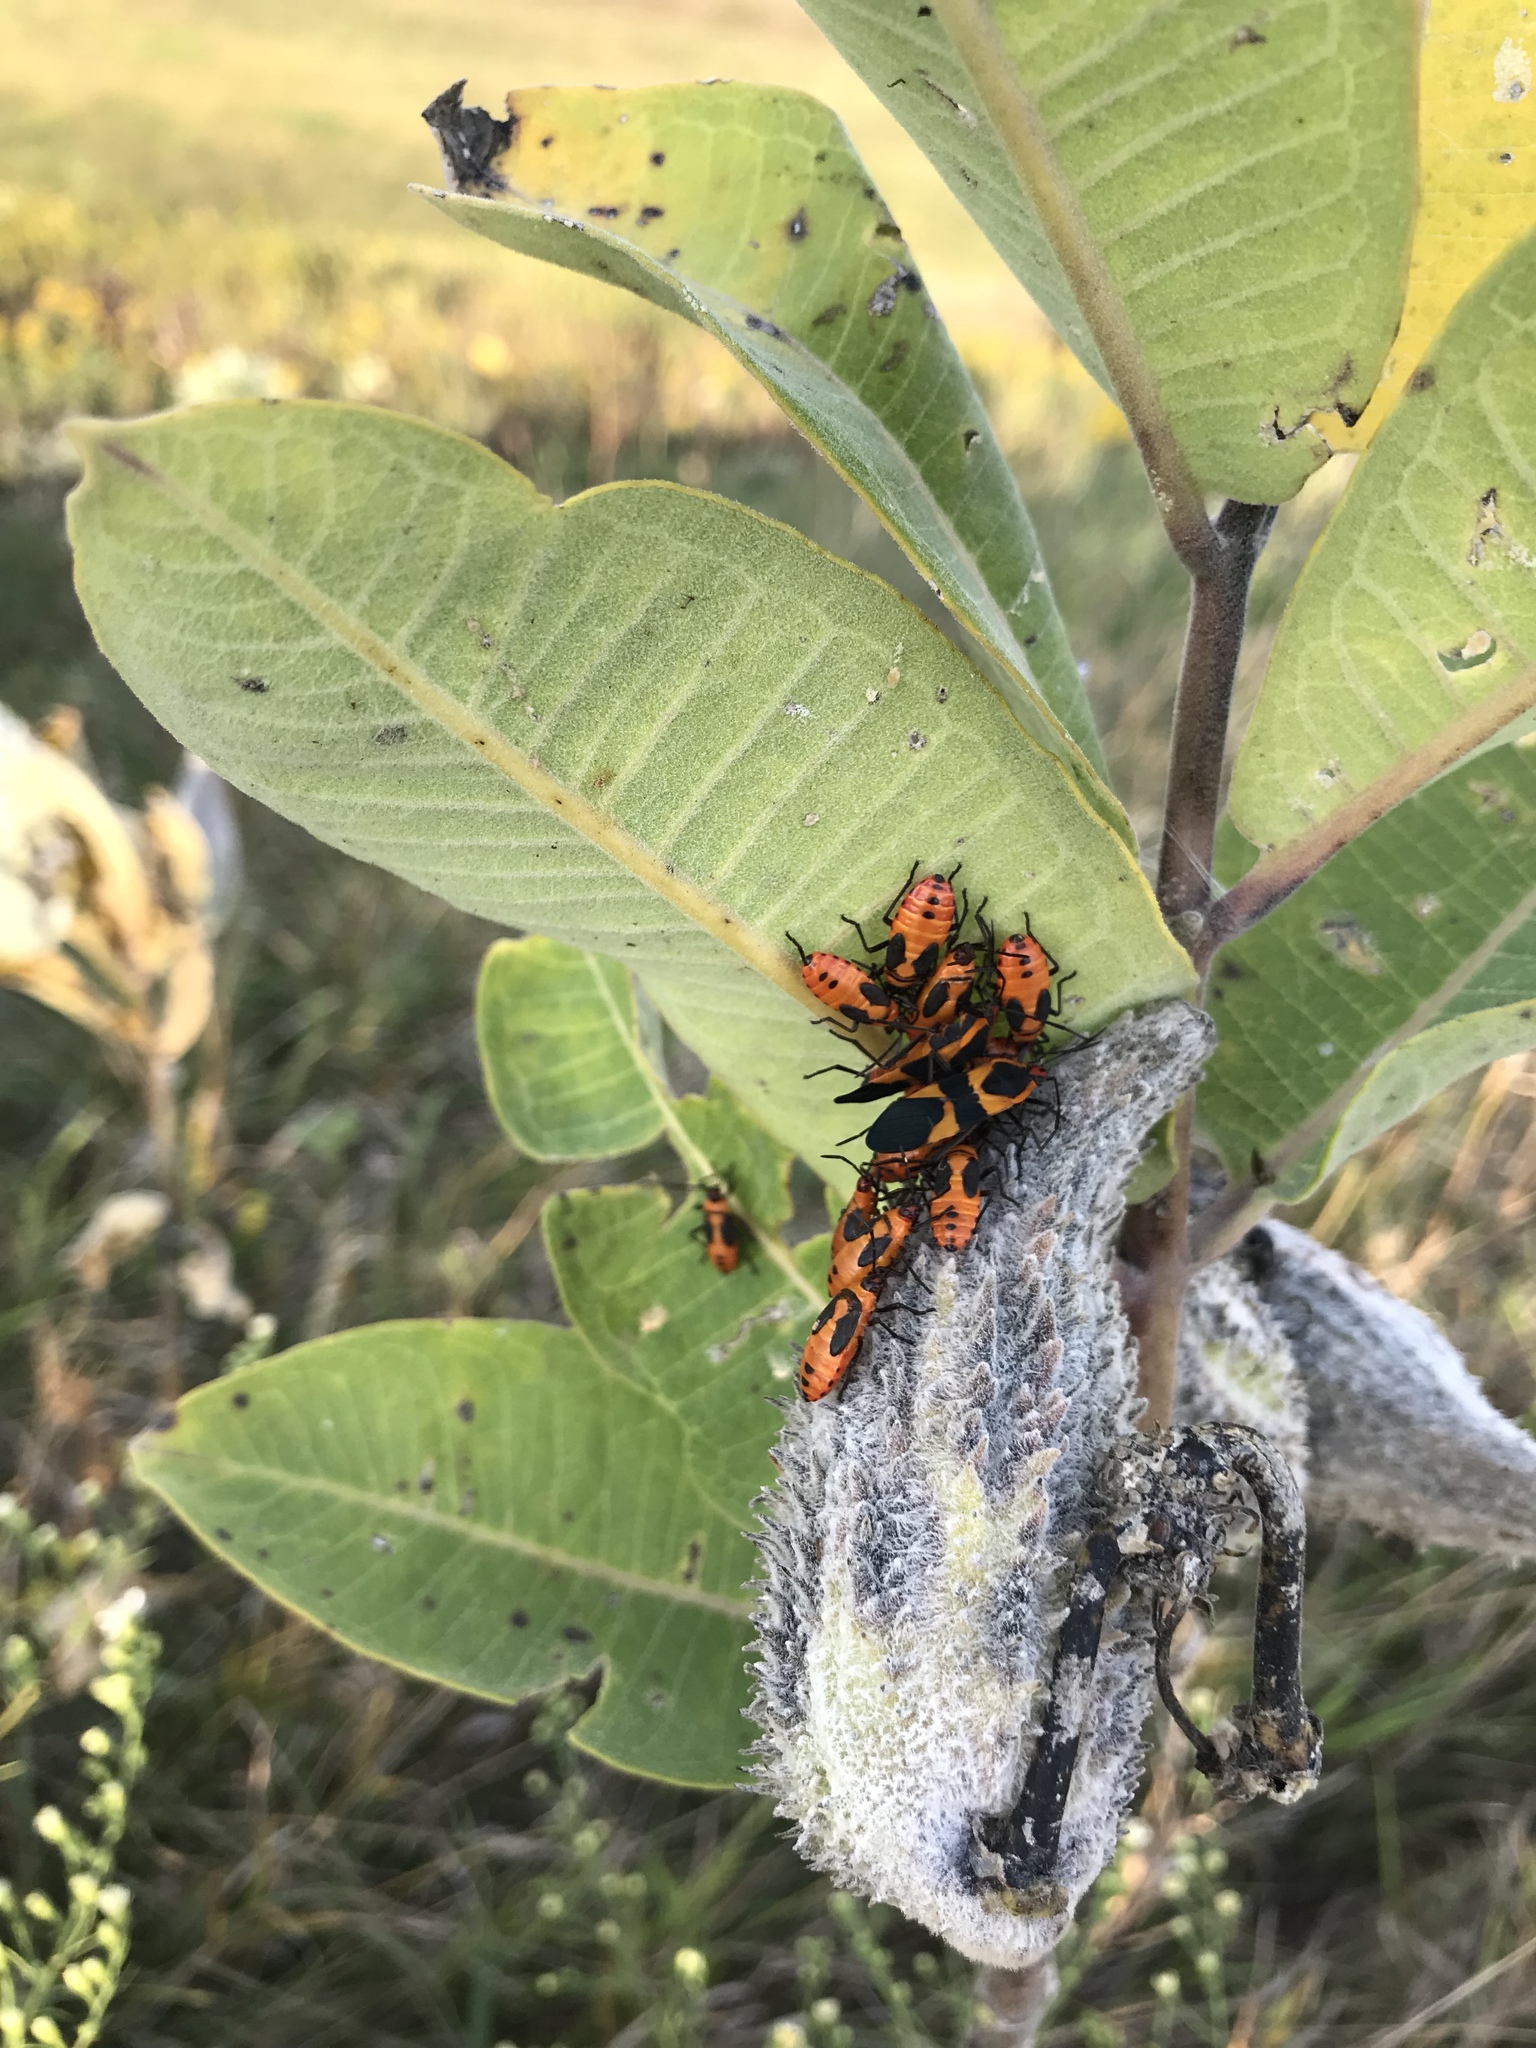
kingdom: Animalia
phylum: Arthropoda
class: Insecta
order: Hemiptera
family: Lygaeidae
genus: Oncopeltus
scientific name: Oncopeltus fasciatus
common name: Large milkweed bug
